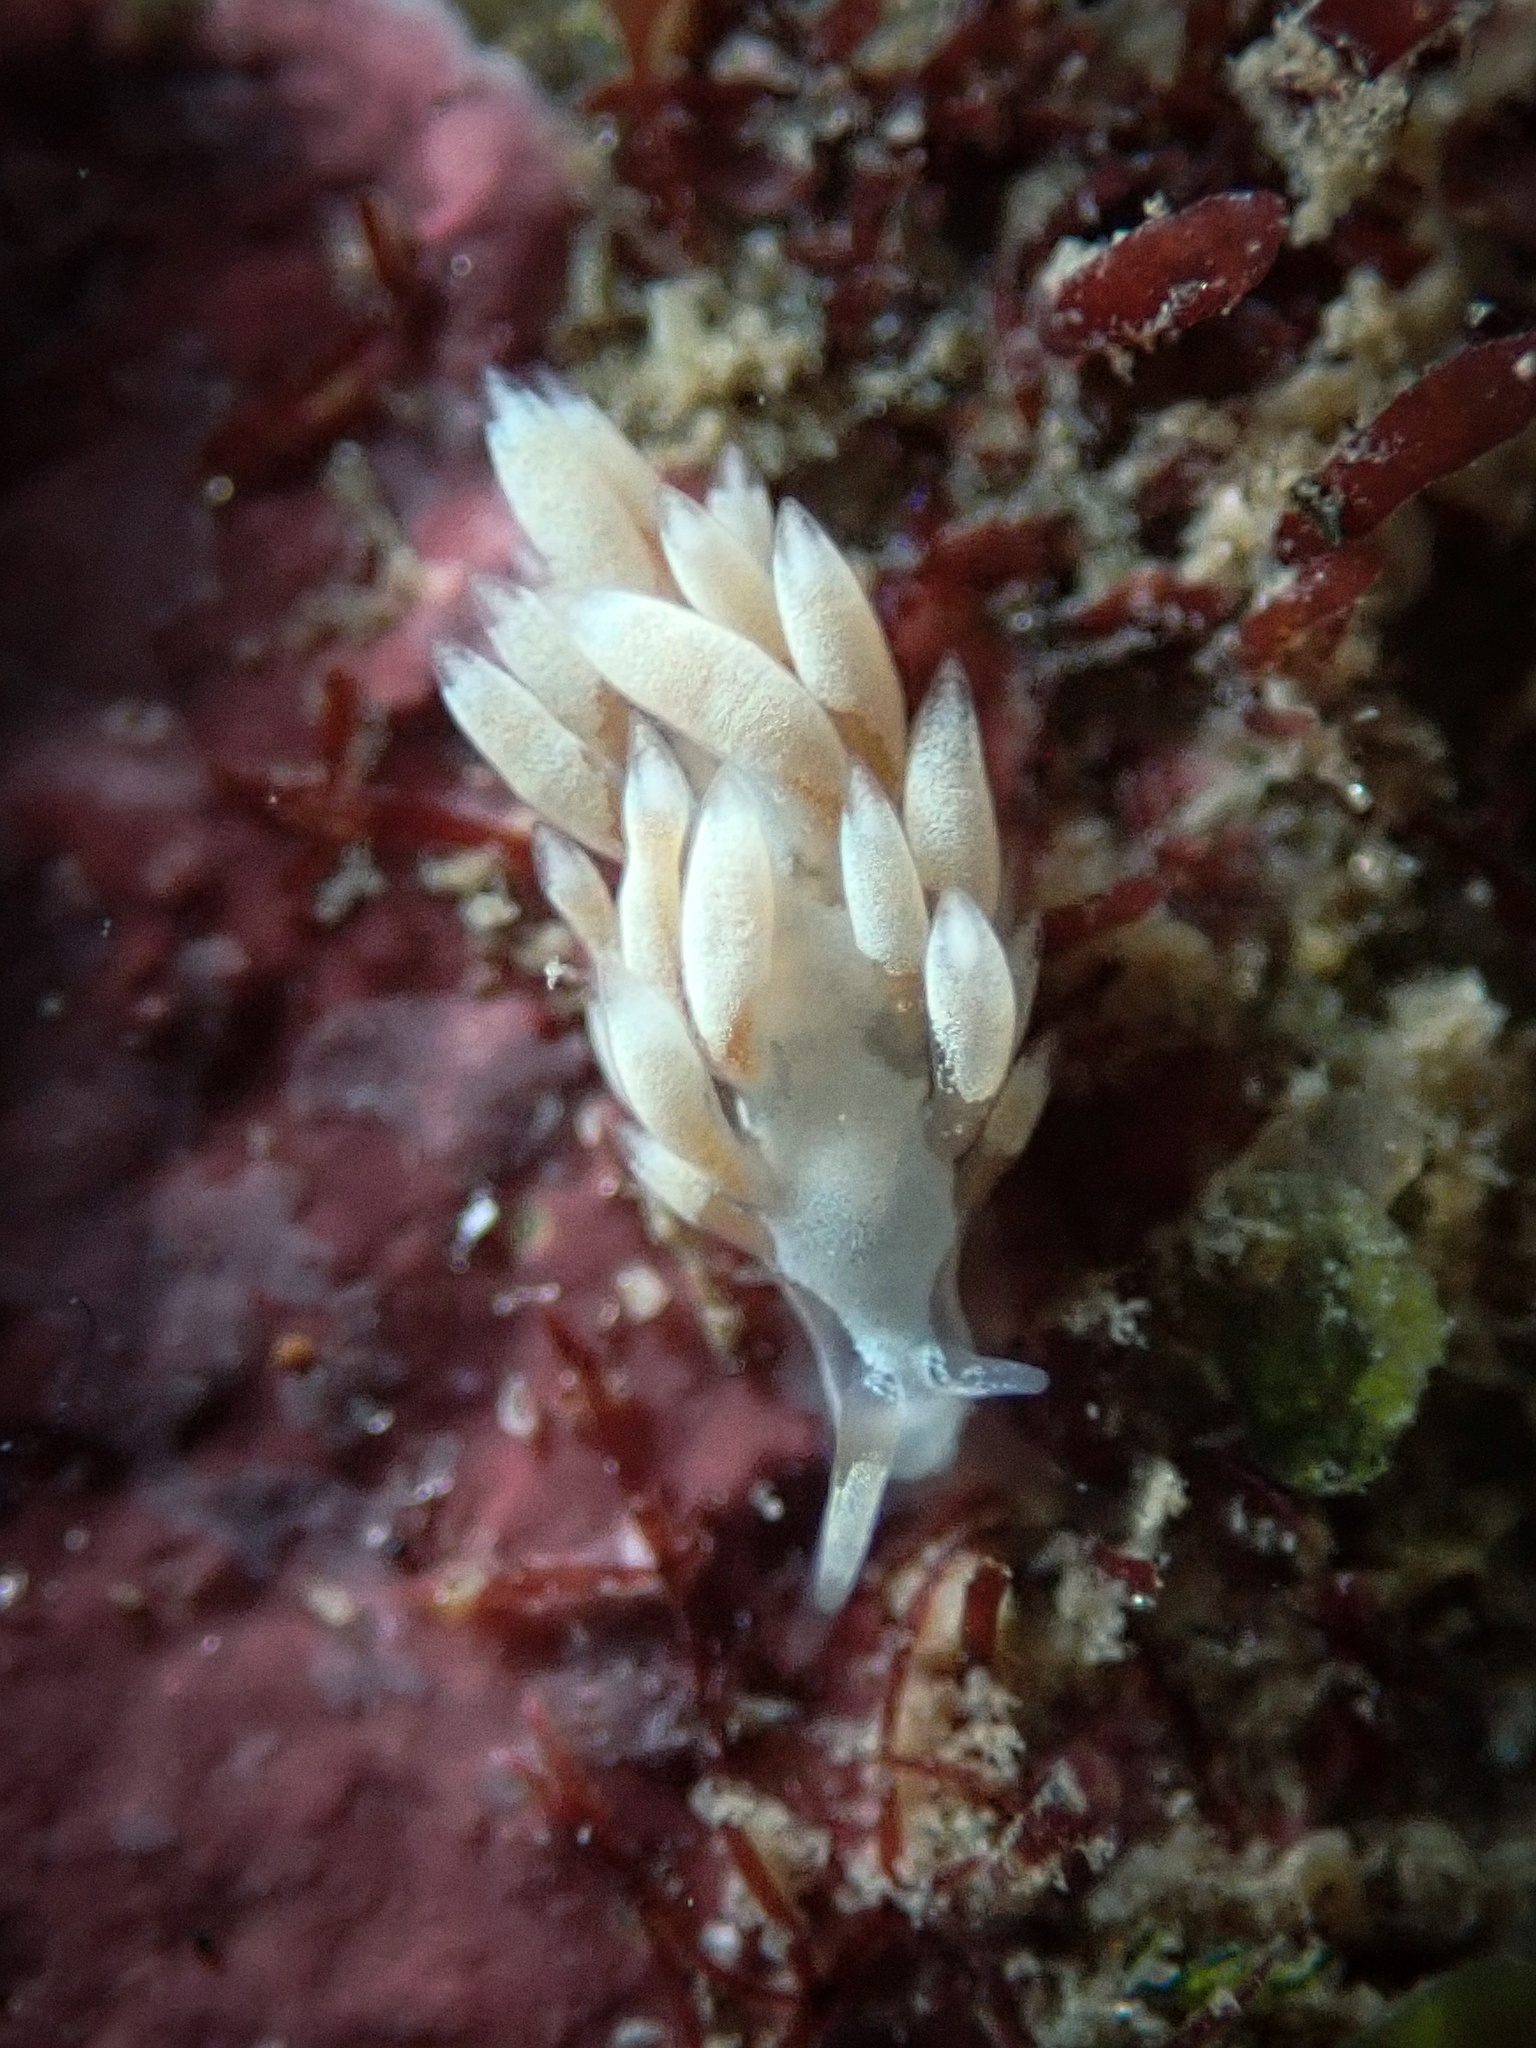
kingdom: Animalia
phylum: Mollusca
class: Gastropoda
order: Nudibranchia
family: Trinchesiidae
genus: Trinchesia
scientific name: Trinchesia albocrusta
